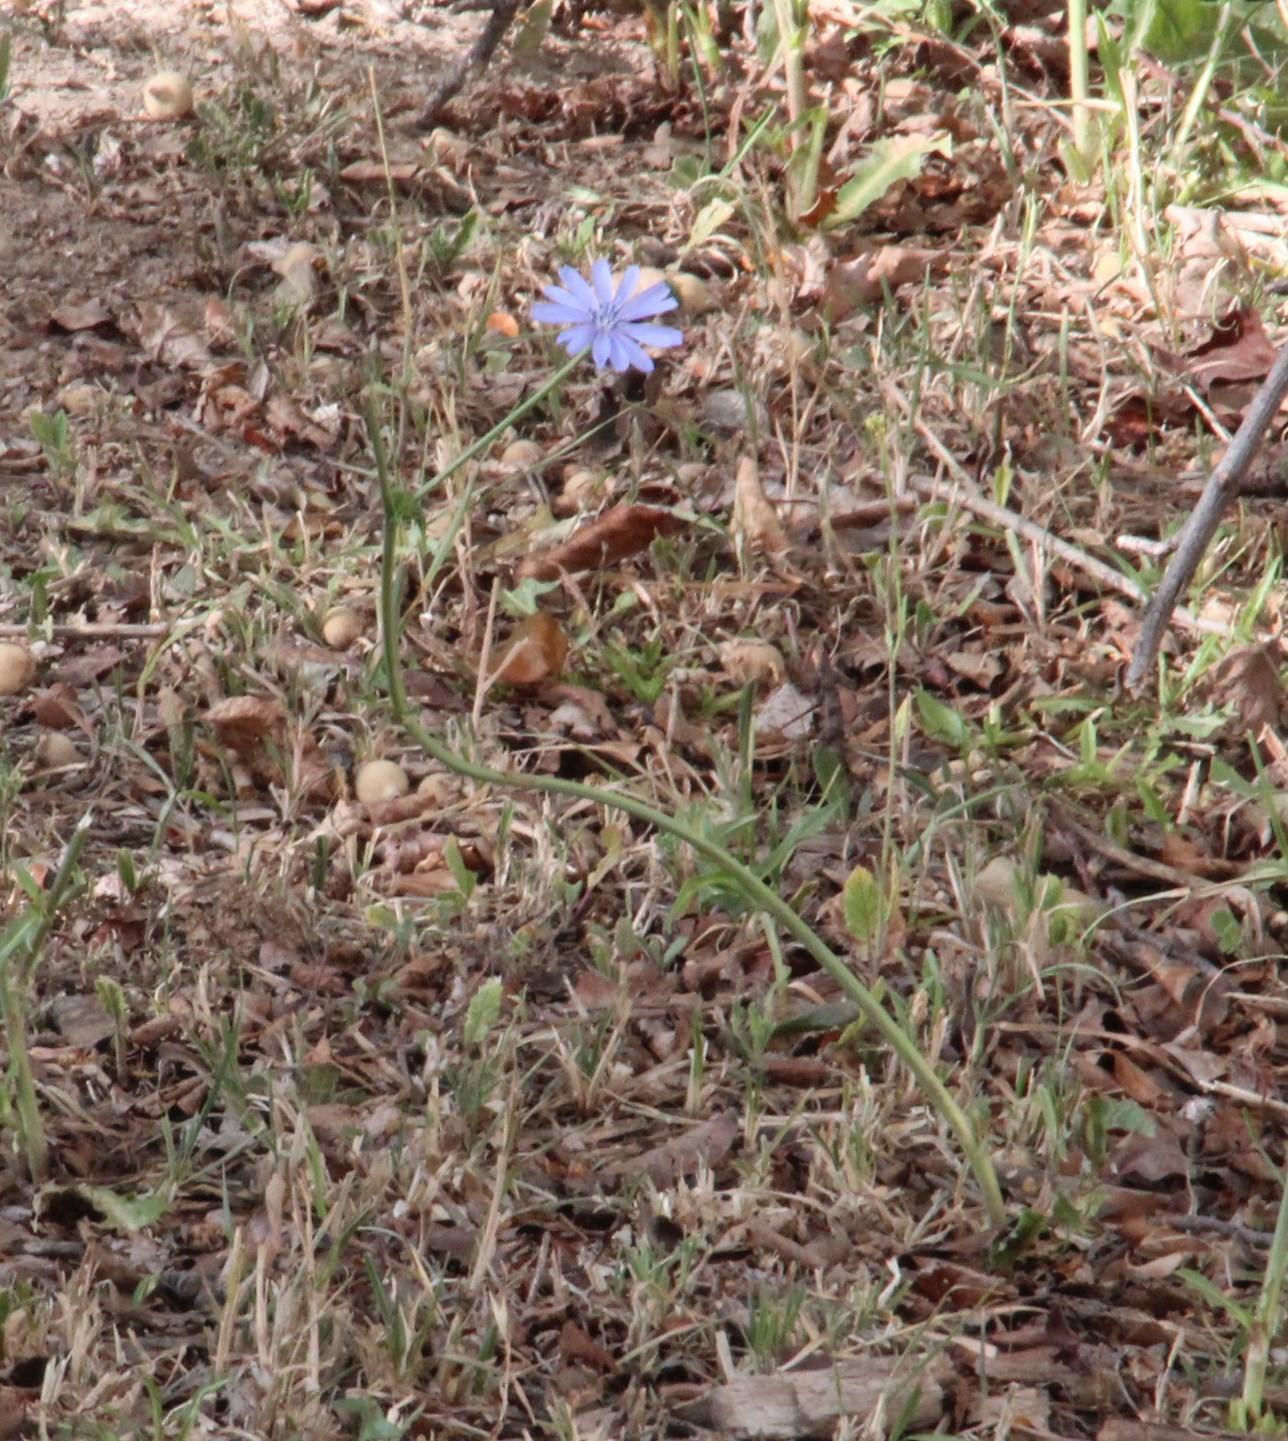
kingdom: Plantae
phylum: Tracheophyta
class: Magnoliopsida
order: Asterales
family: Asteraceae
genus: Cichorium
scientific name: Cichorium intybus
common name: Chicory
